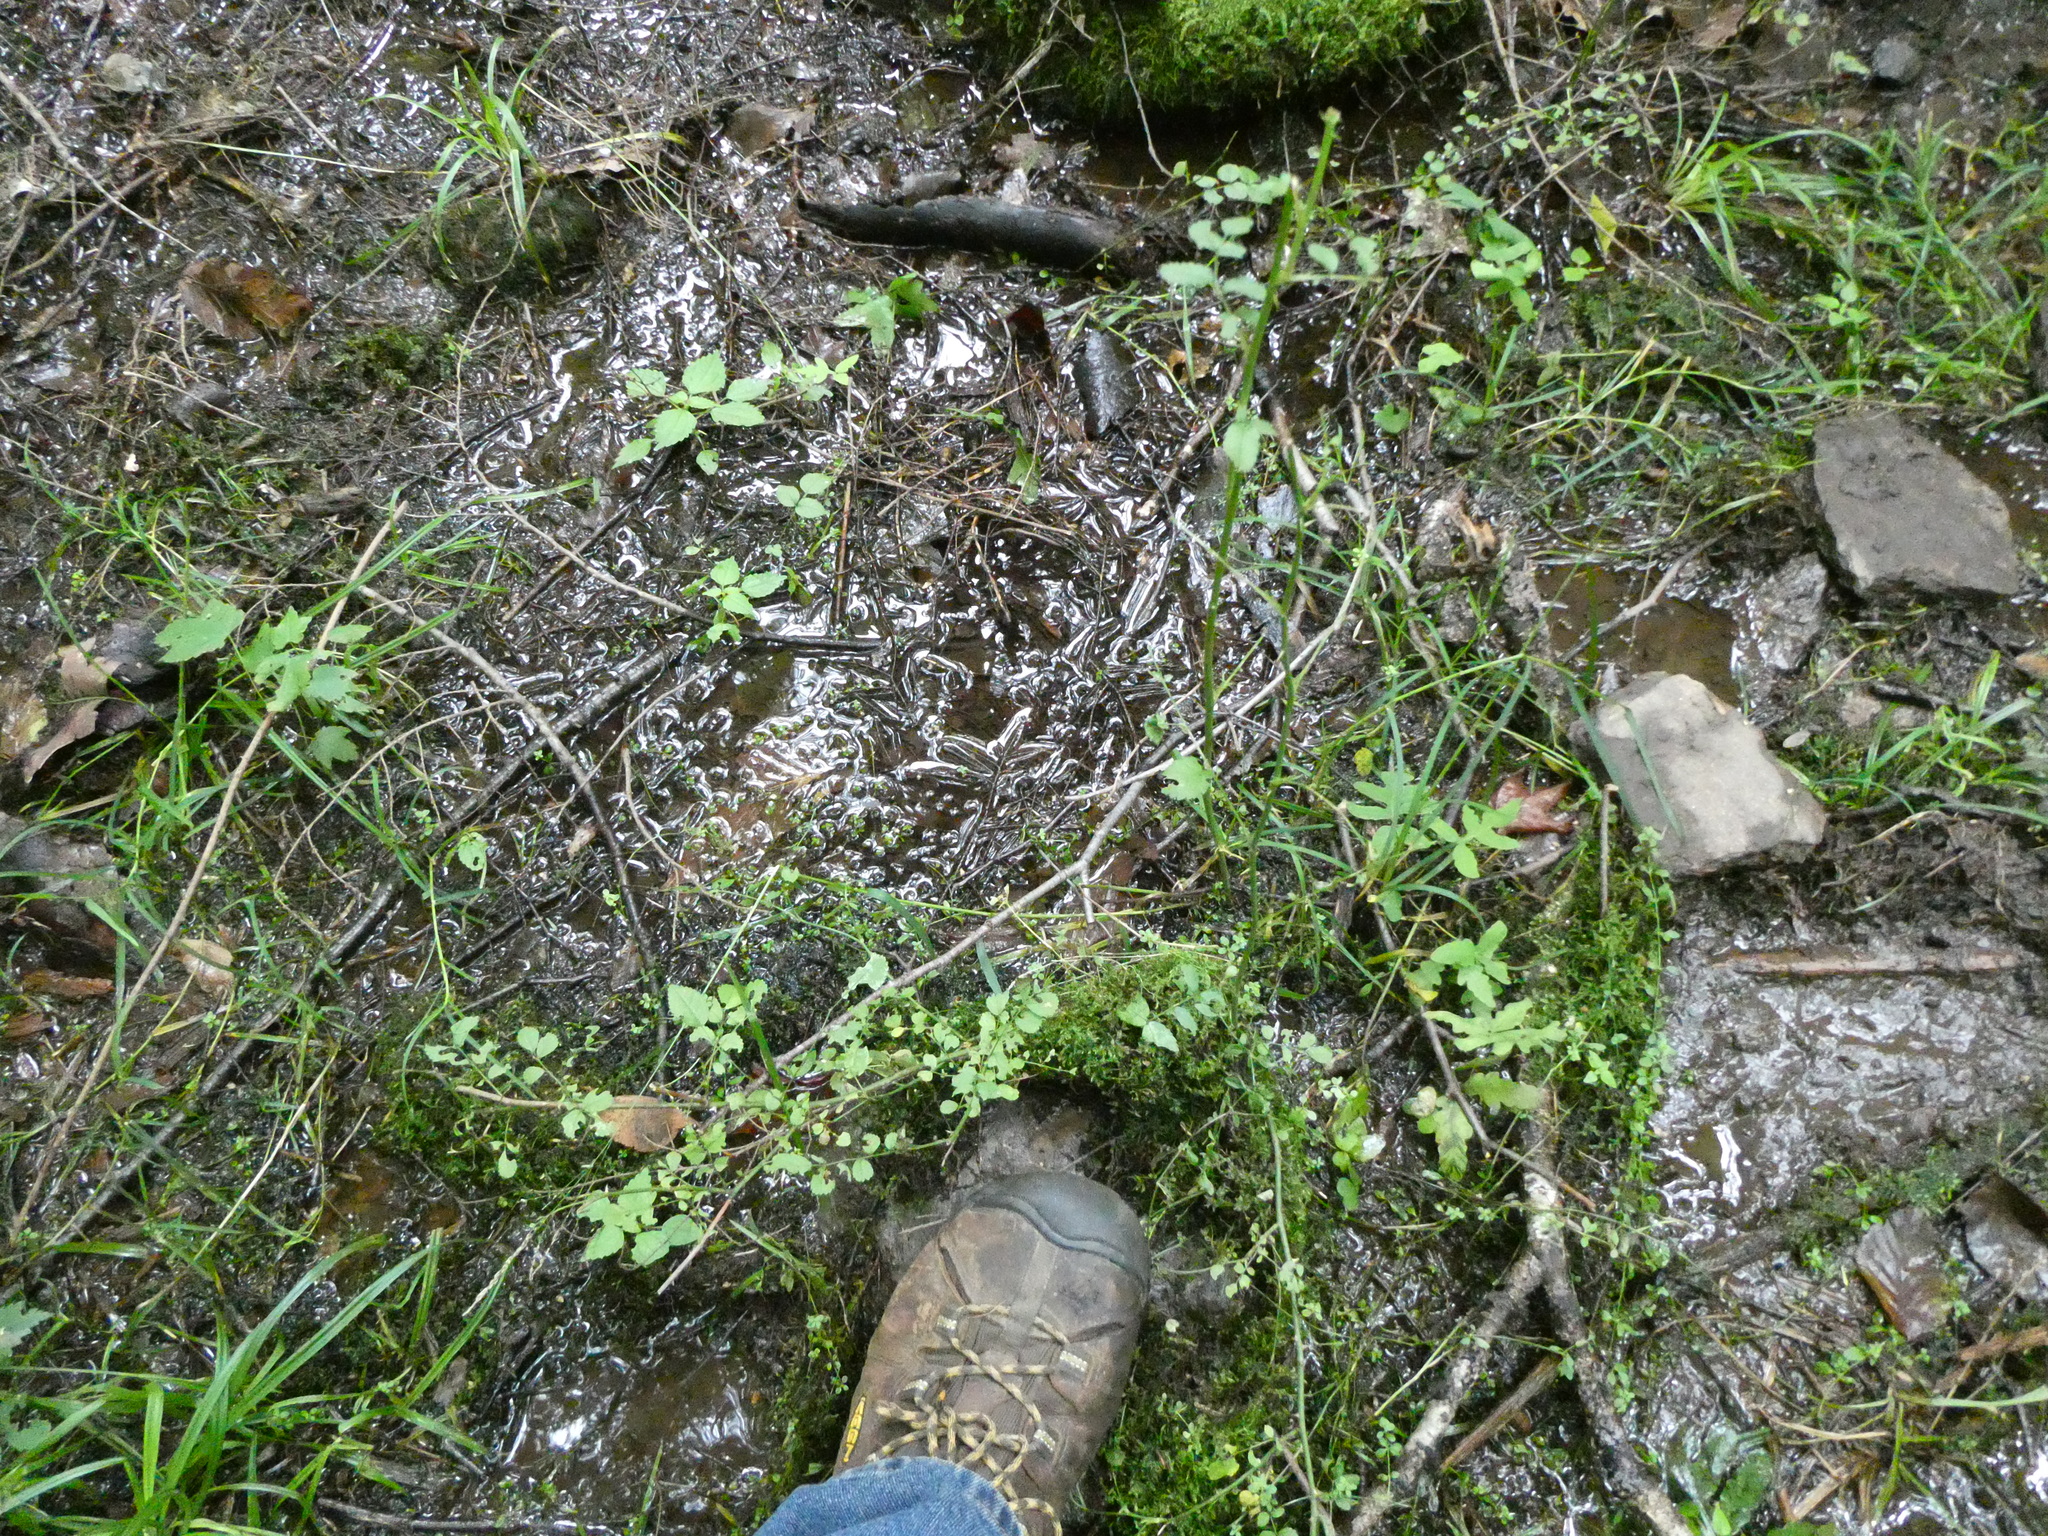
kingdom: Plantae
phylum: Tracheophyta
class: Magnoliopsida
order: Rosales
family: Rosaceae
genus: Rosa
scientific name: Rosa multiflora
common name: Multiflora rose
